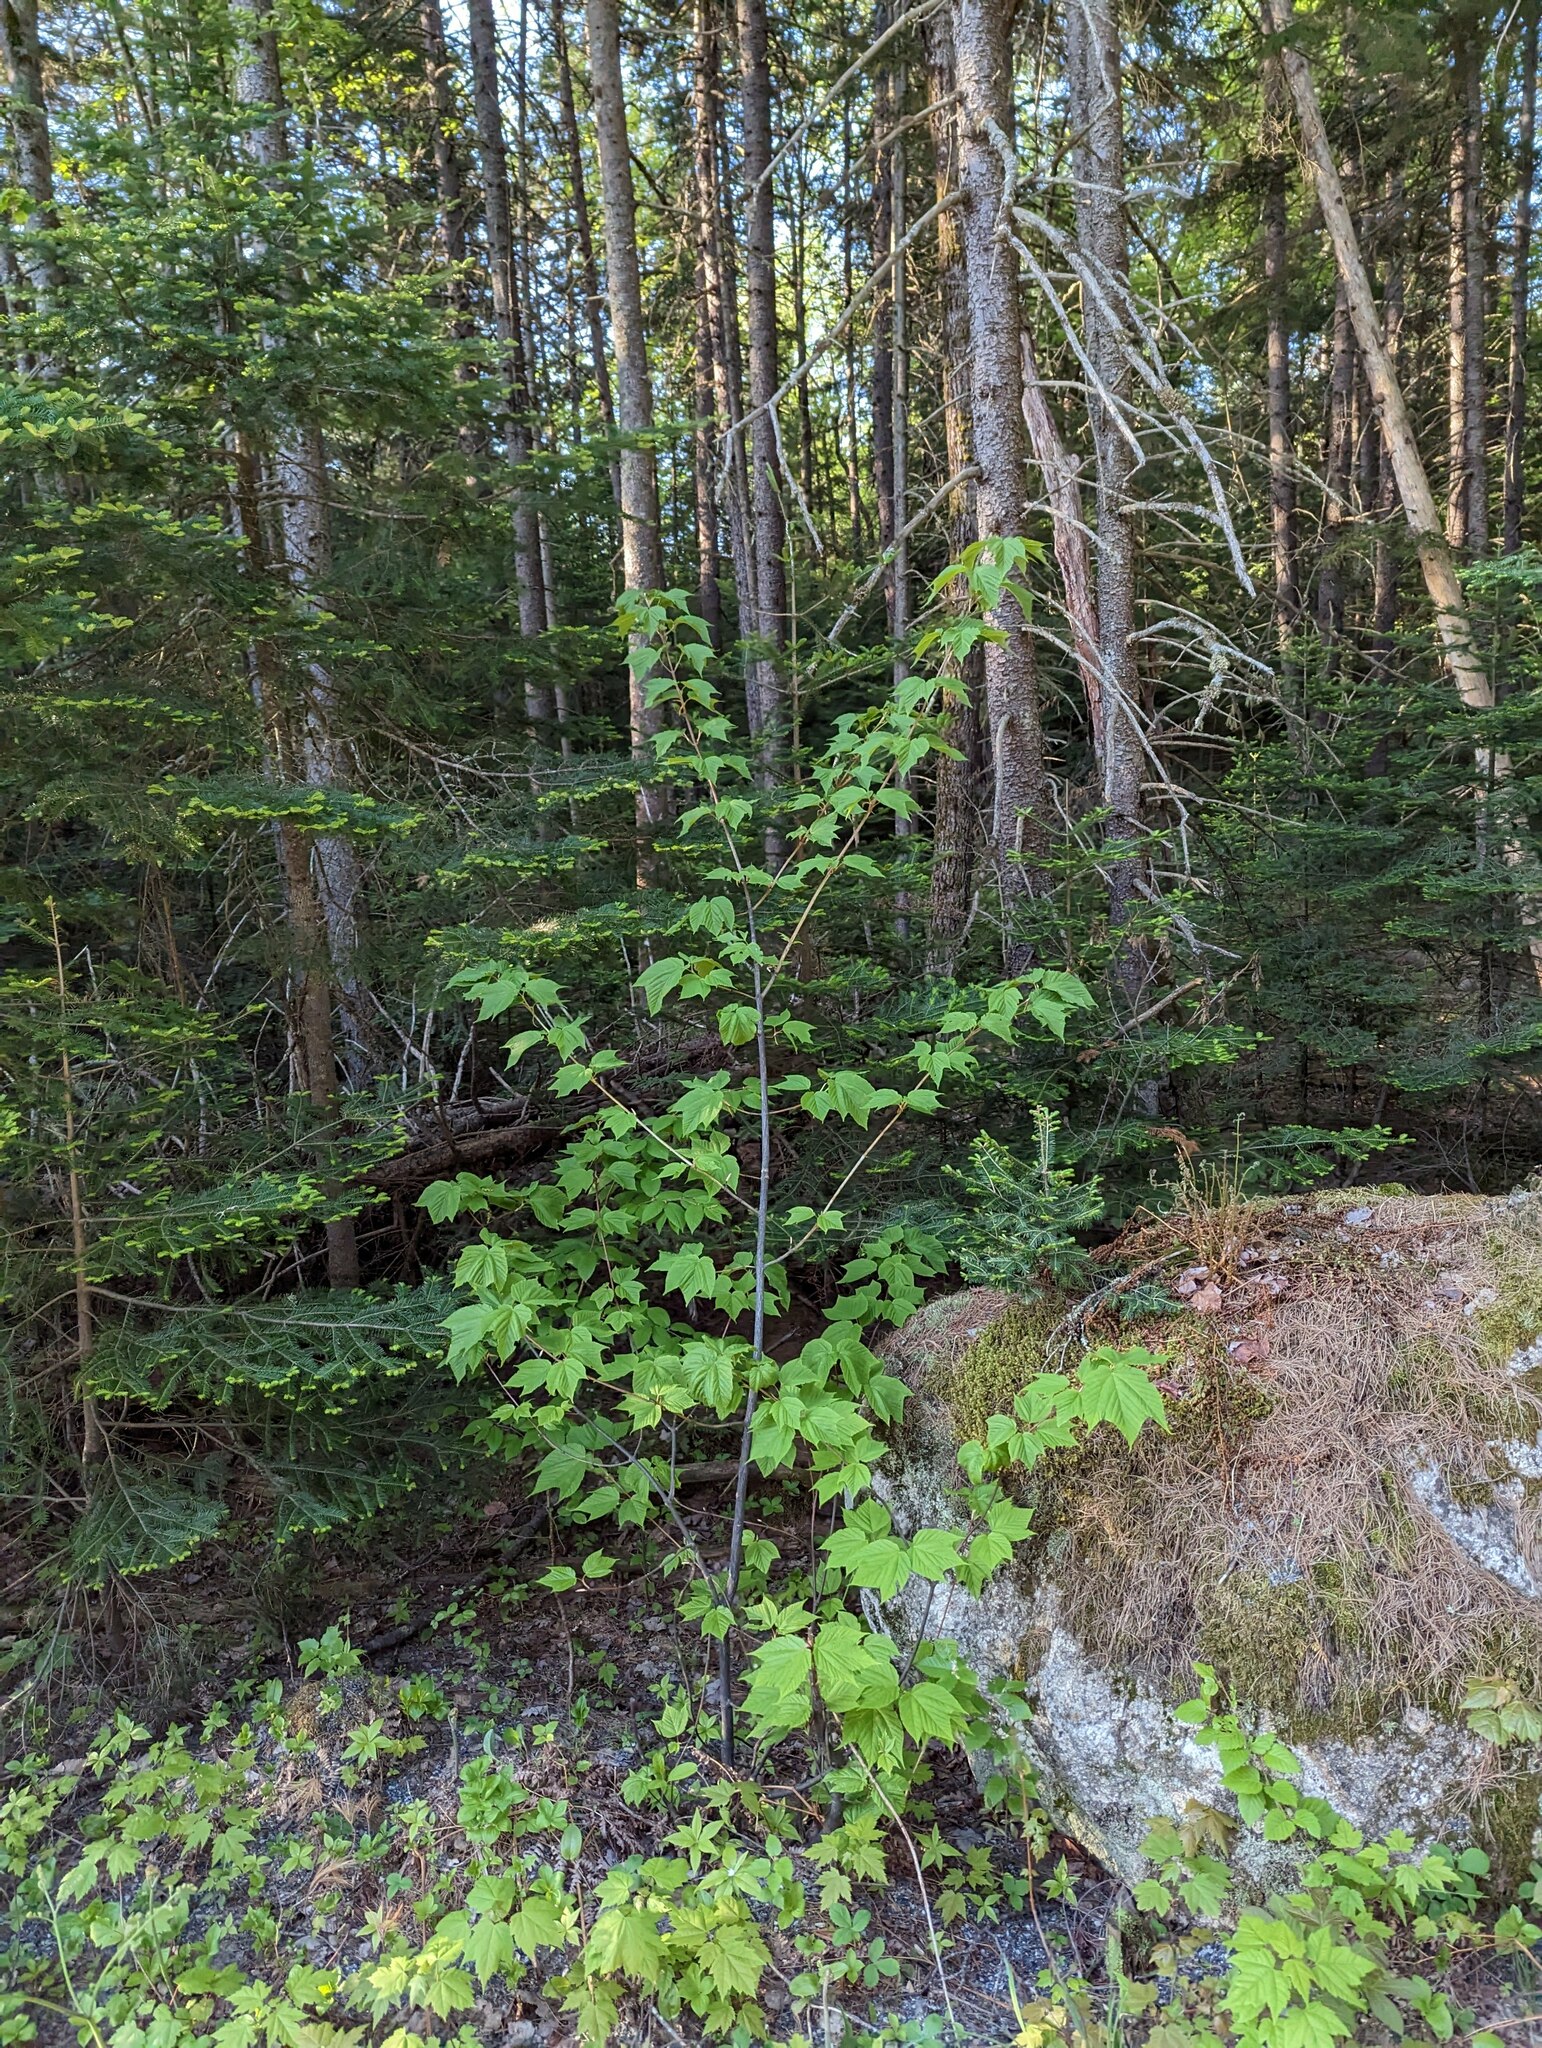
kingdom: Plantae
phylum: Tracheophyta
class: Magnoliopsida
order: Sapindales
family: Sapindaceae
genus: Acer
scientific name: Acer pensylvanicum
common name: Moosewood
